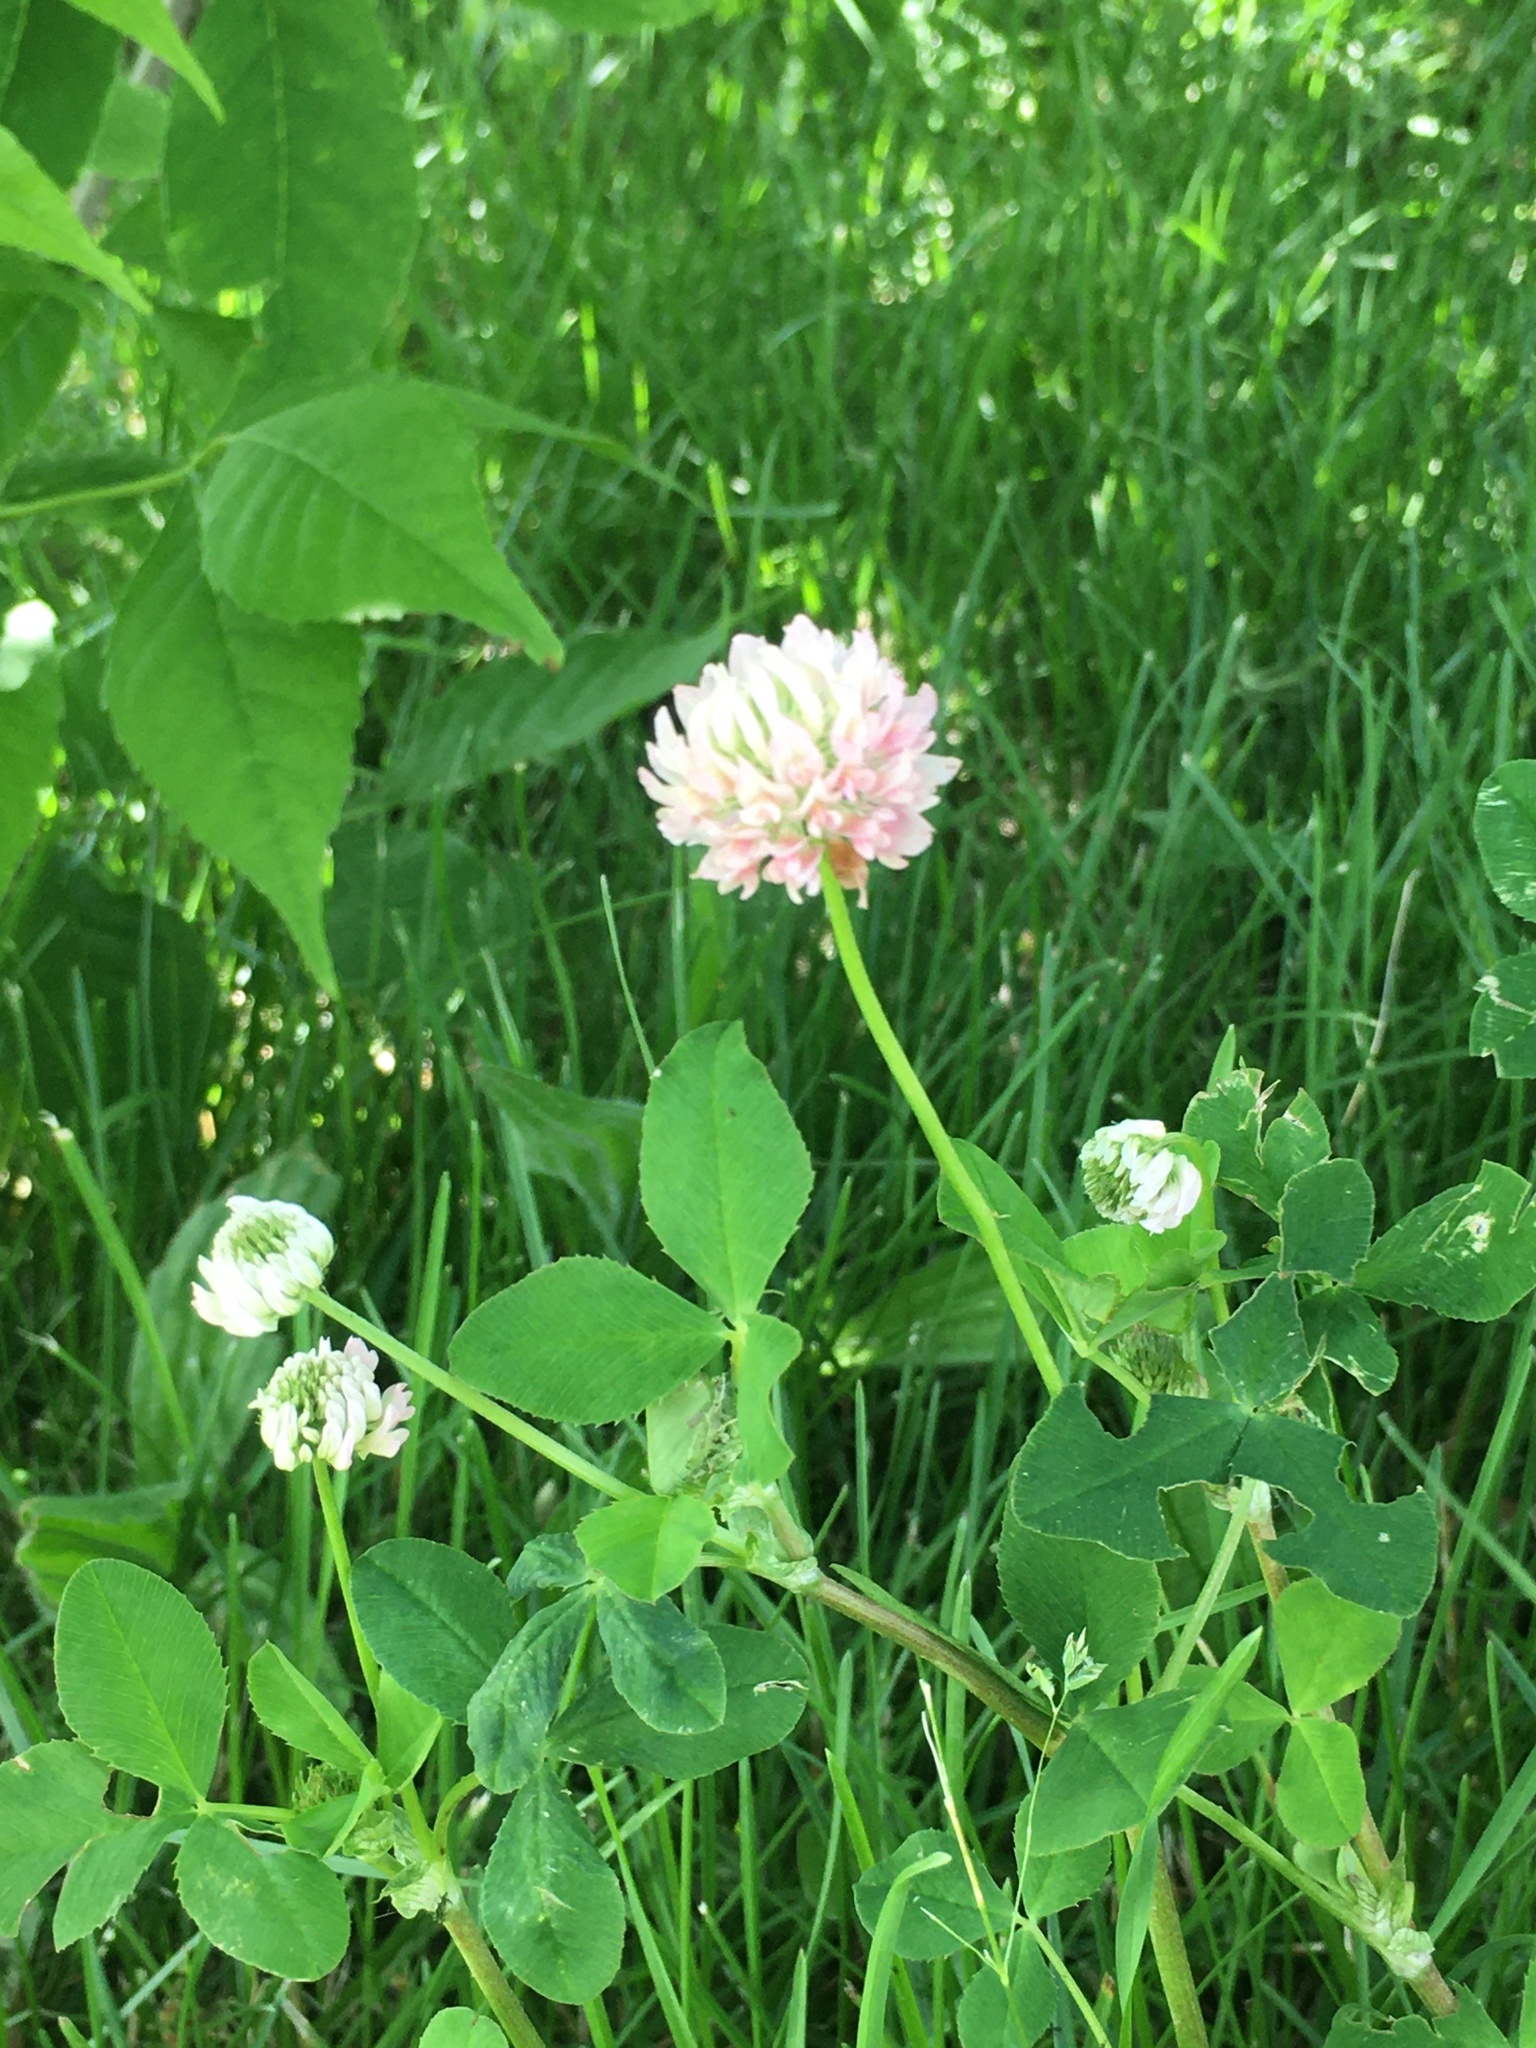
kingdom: Plantae
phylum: Tracheophyta
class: Magnoliopsida
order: Fabales
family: Fabaceae
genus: Trifolium
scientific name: Trifolium hybridum
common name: Alsike clover
